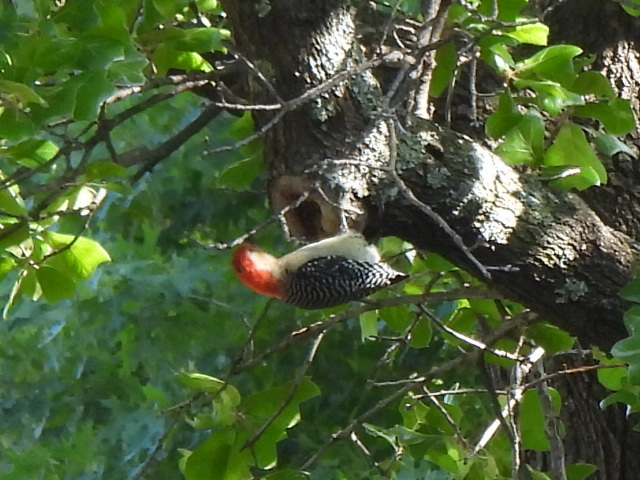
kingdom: Animalia
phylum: Chordata
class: Aves
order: Piciformes
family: Picidae
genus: Melanerpes
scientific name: Melanerpes carolinus
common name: Red-bellied woodpecker
